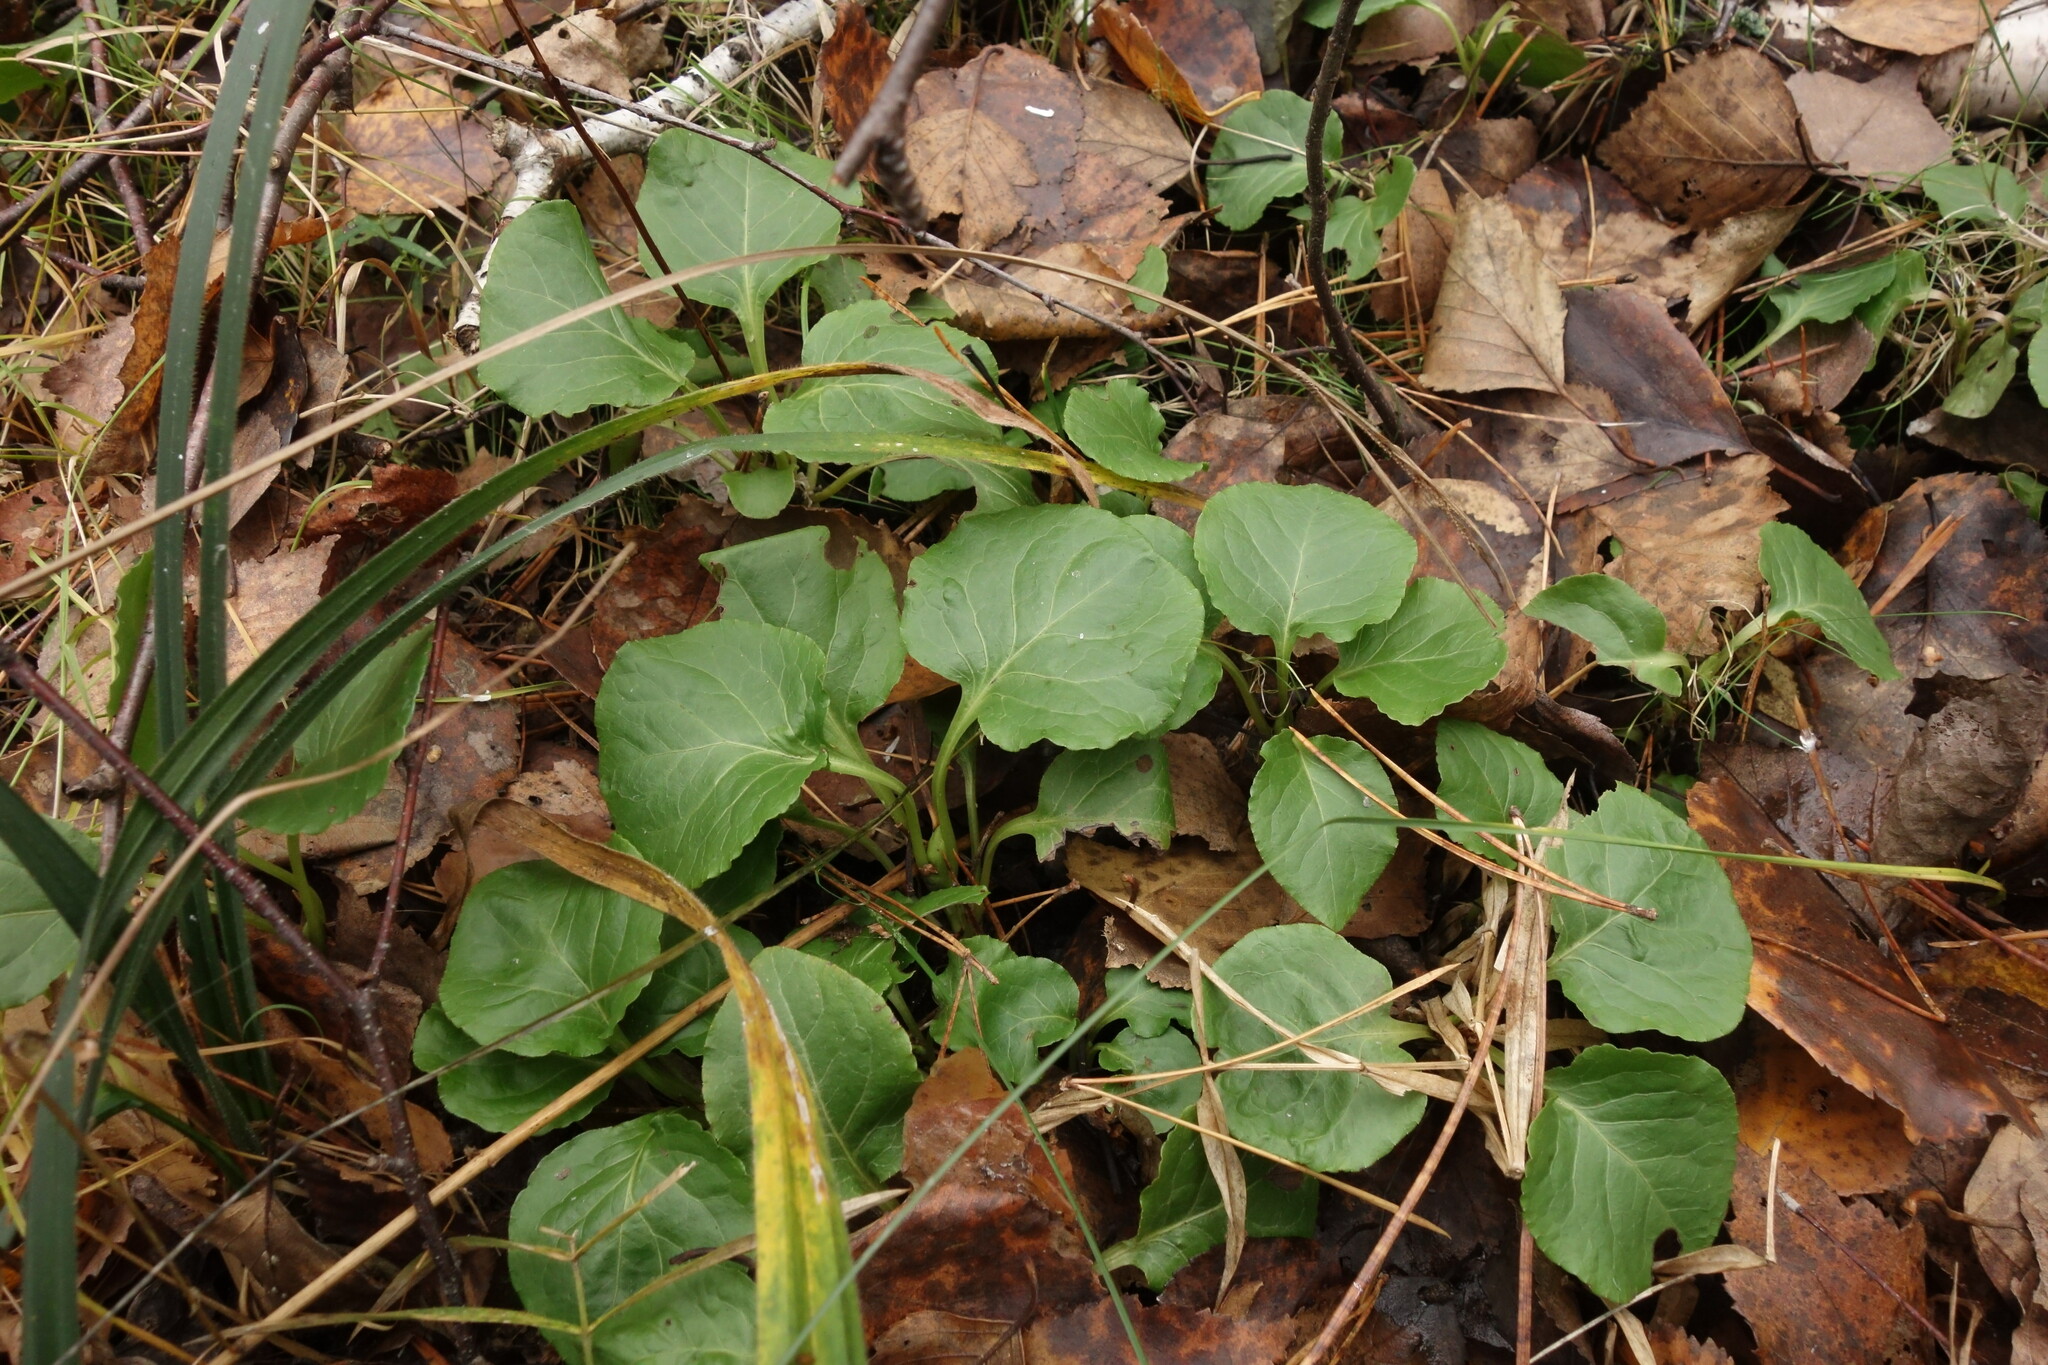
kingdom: Plantae
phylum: Tracheophyta
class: Magnoliopsida
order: Ericales
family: Ericaceae
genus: Pyrola
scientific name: Pyrola minor
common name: Common wintergreen
